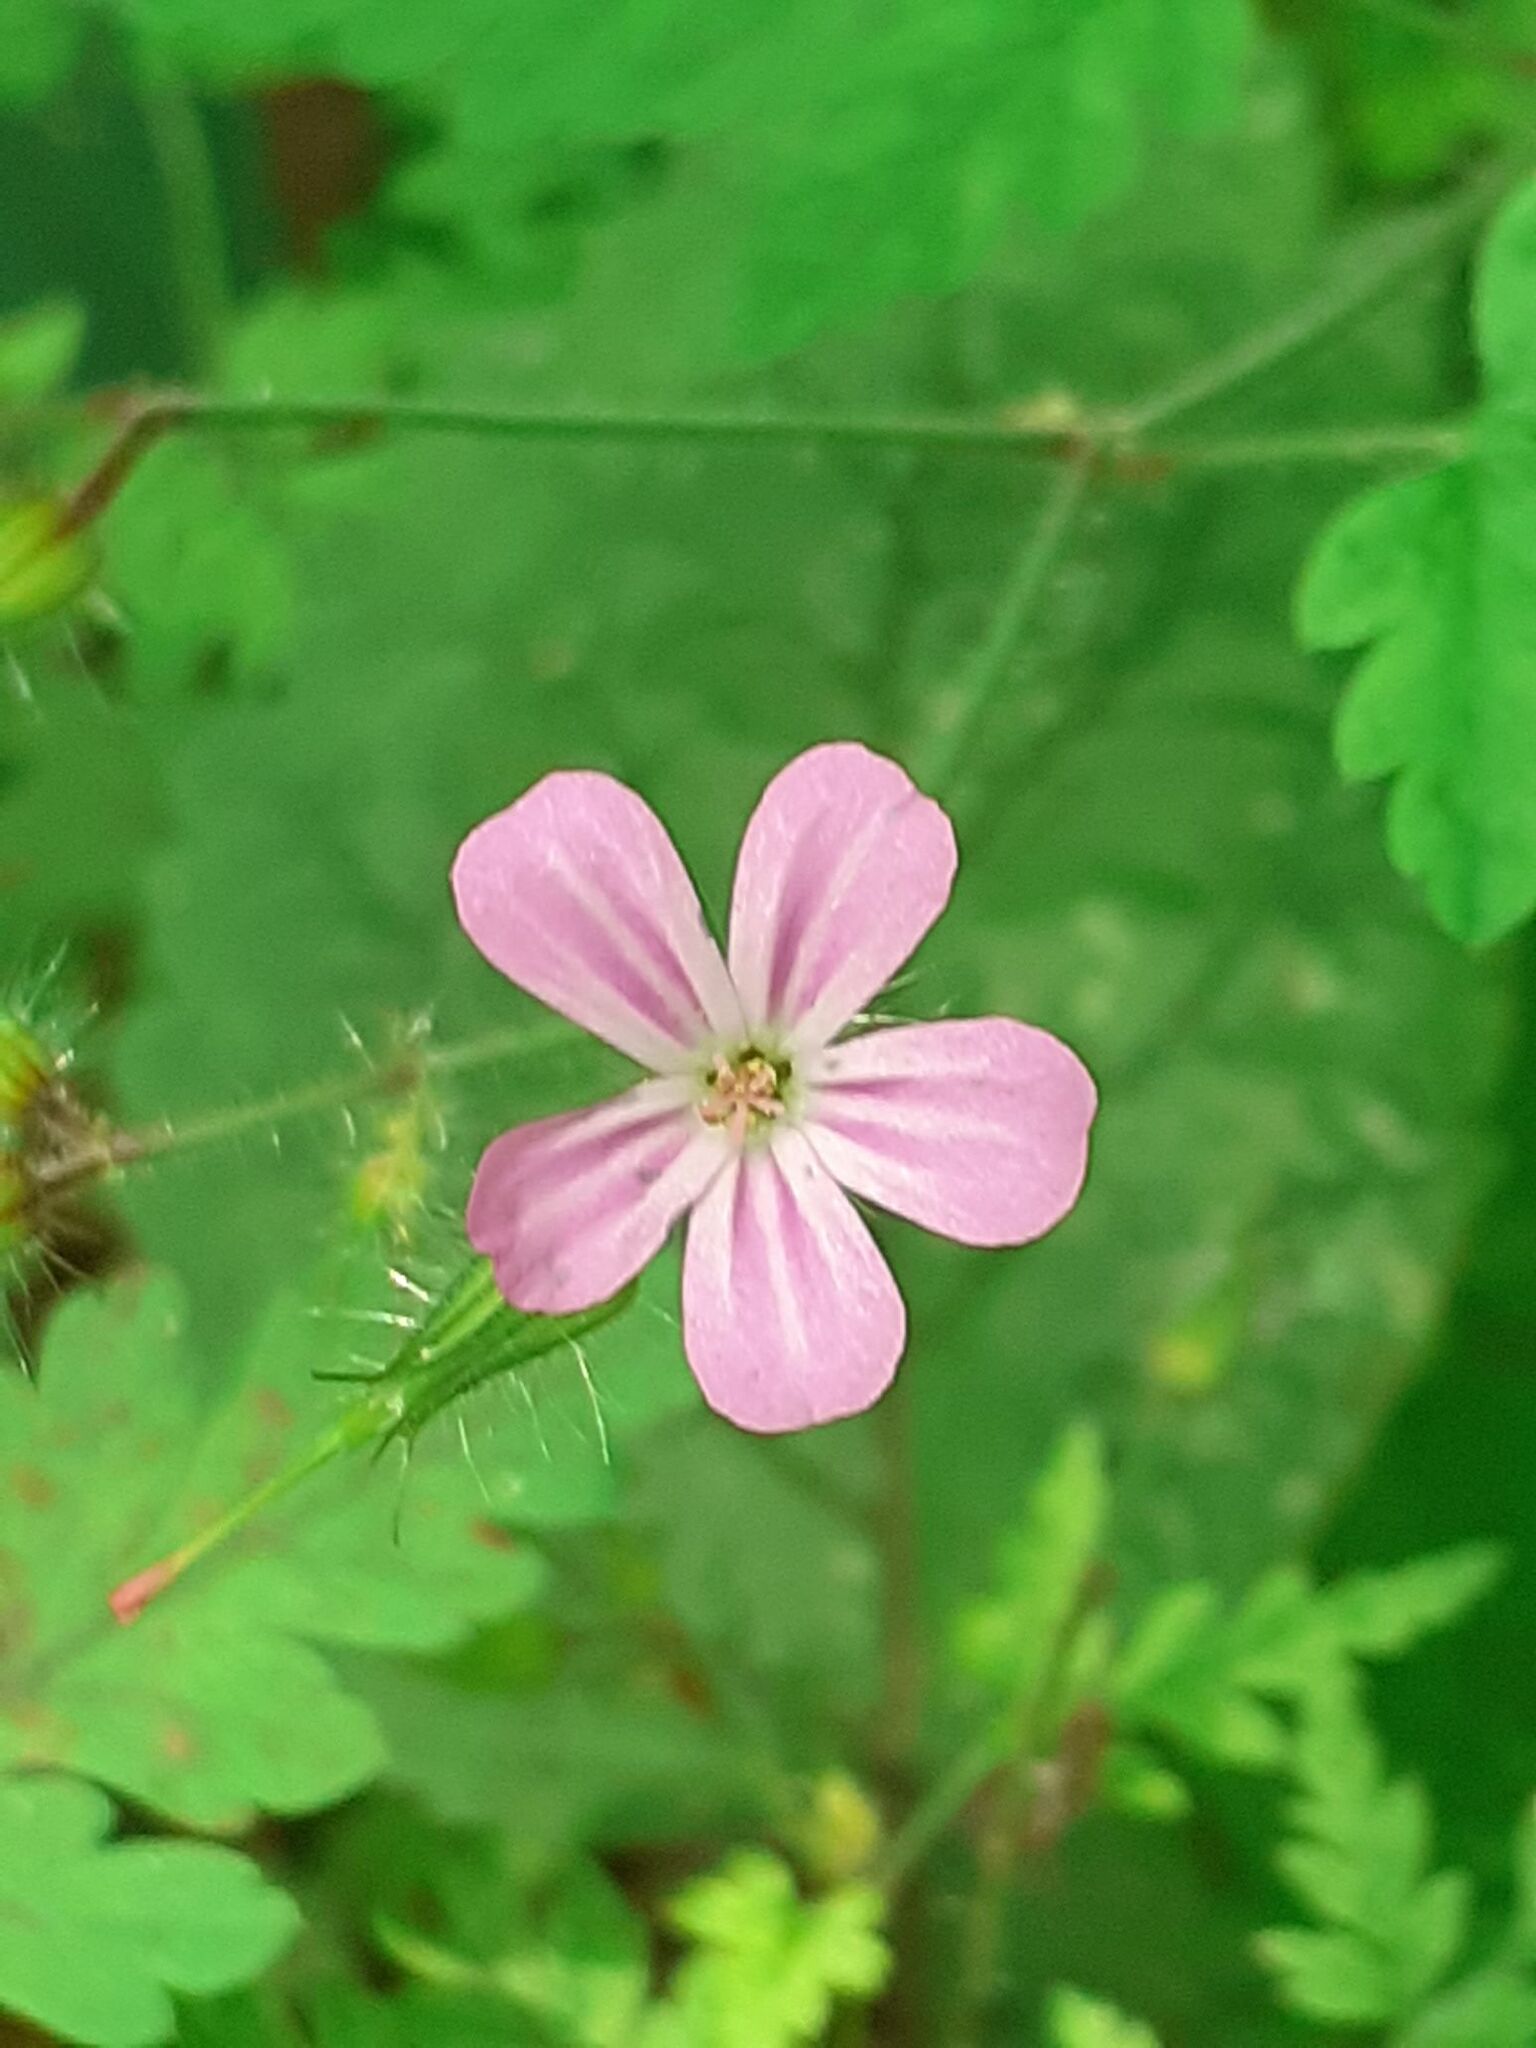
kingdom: Plantae
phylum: Tracheophyta
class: Magnoliopsida
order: Geraniales
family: Geraniaceae
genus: Geranium
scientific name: Geranium robertianum
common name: Herb-robert
